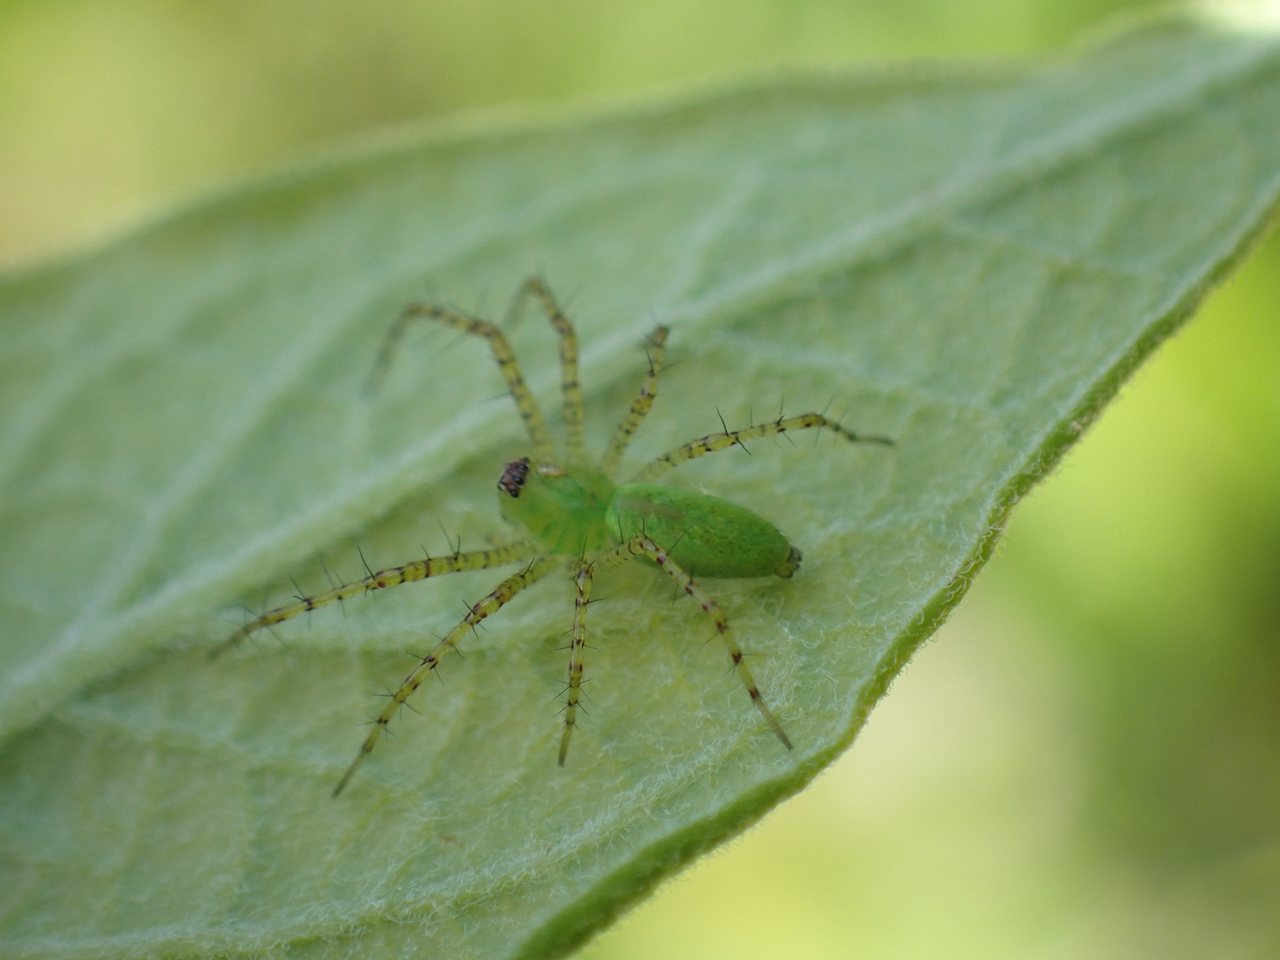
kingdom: Animalia
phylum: Arthropoda
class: Arachnida
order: Araneae
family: Oxyopidae
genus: Peucetia
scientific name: Peucetia viridans
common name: Lynx spiders
